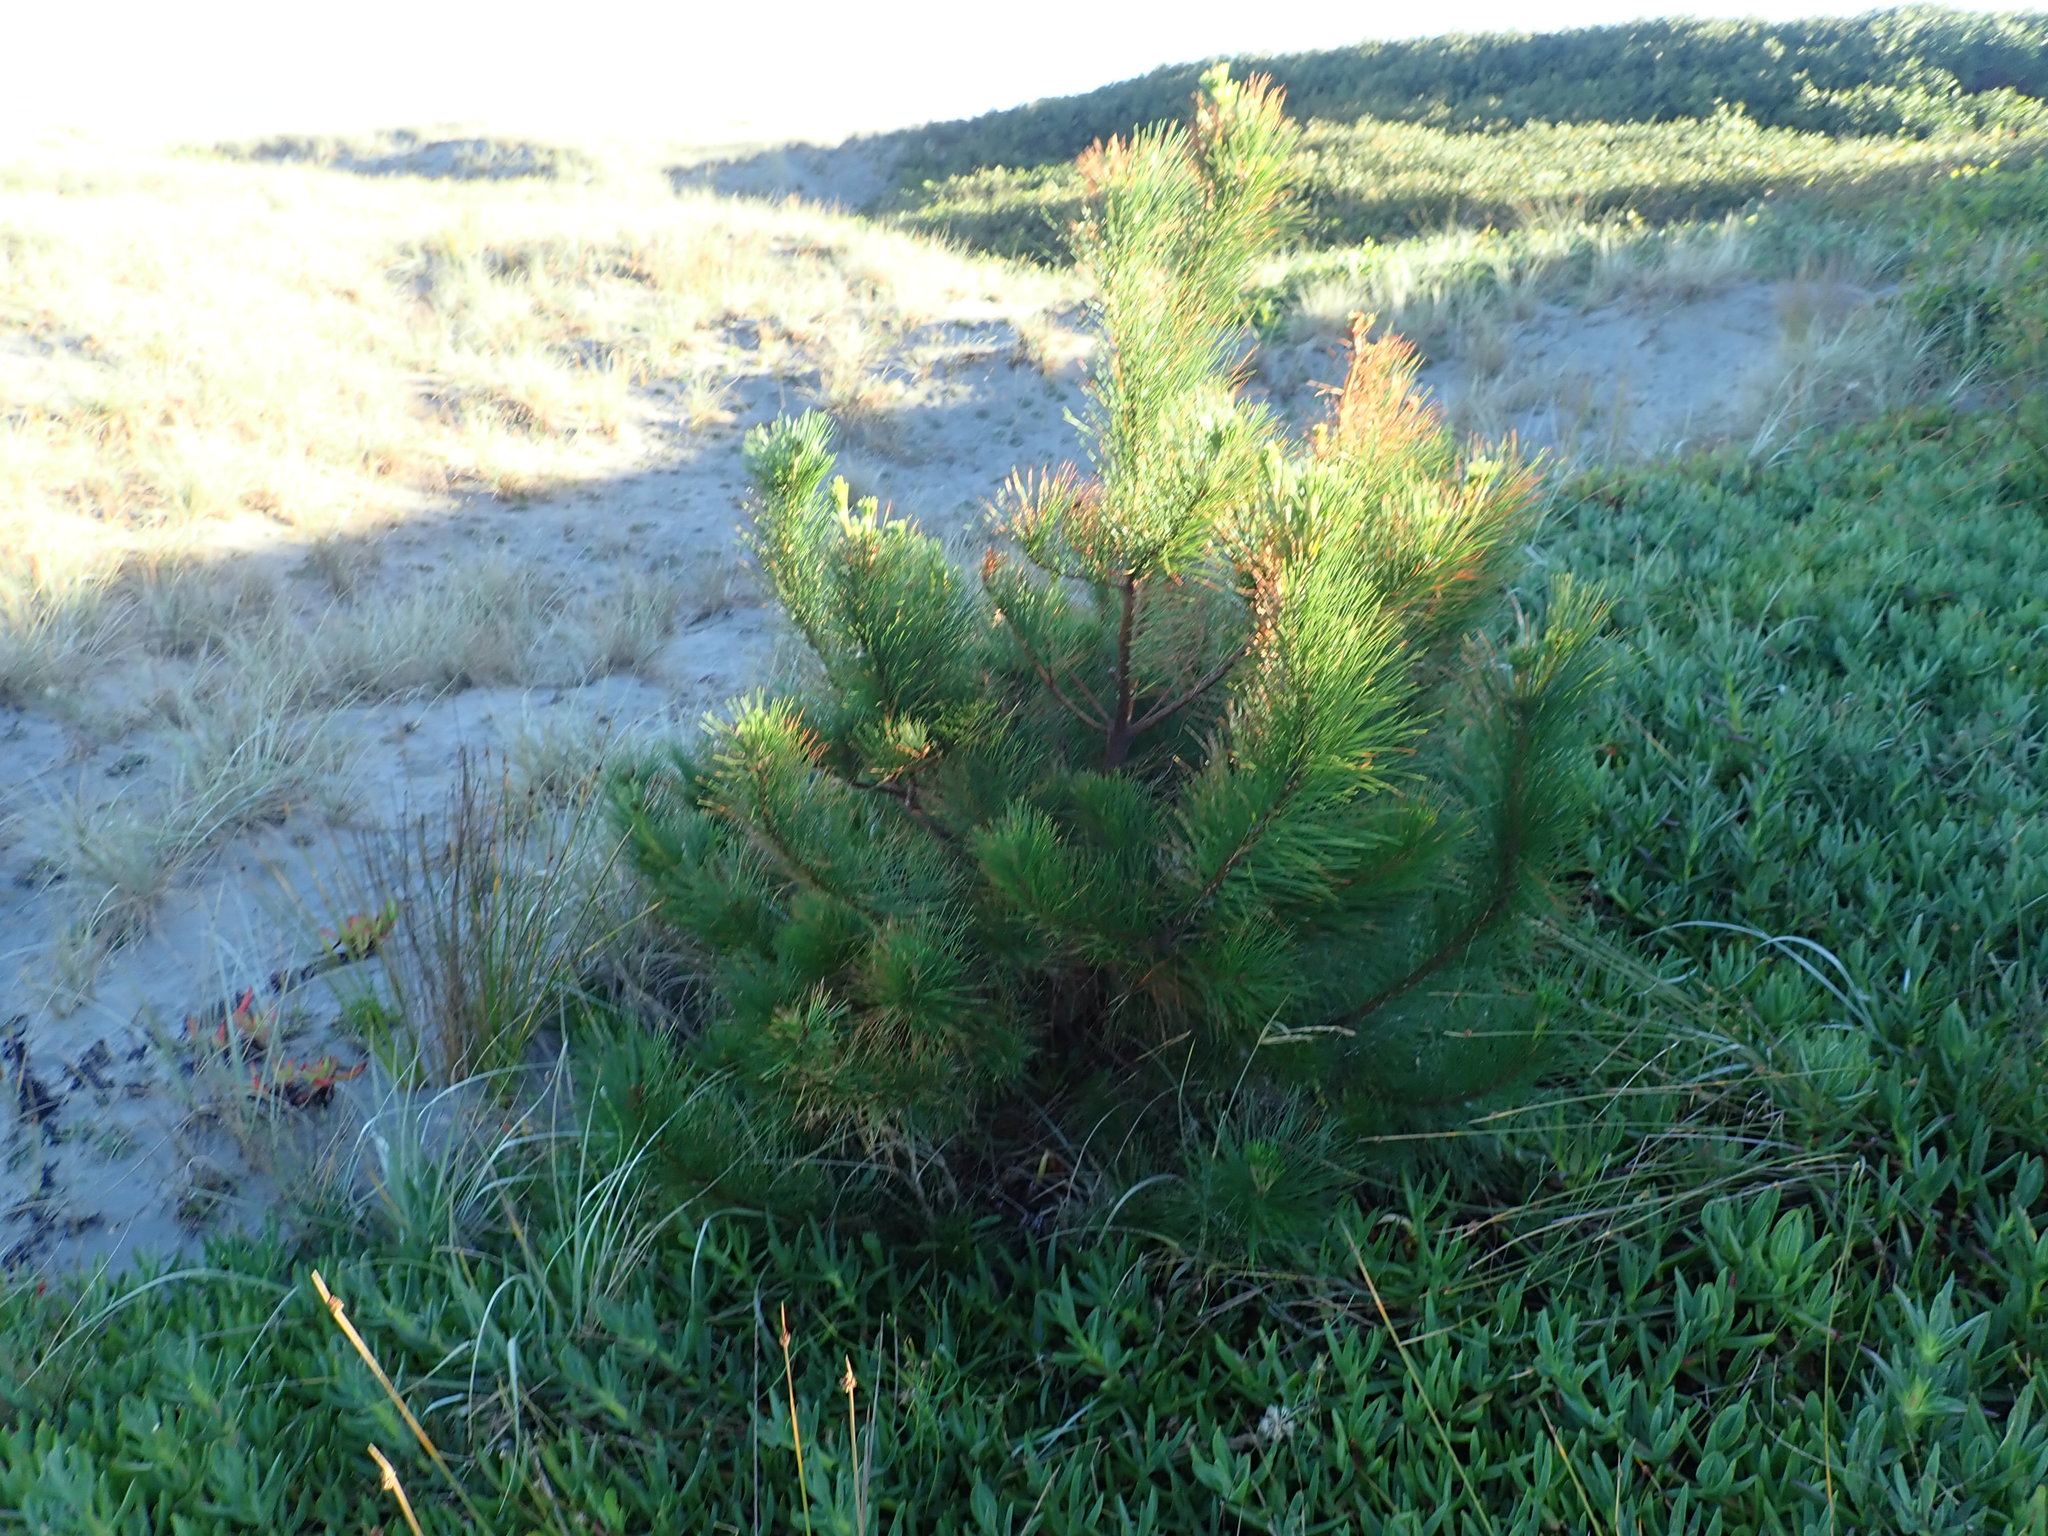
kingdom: Plantae
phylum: Tracheophyta
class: Pinopsida
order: Pinales
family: Pinaceae
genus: Pinus
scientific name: Pinus radiata
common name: Monterey pine
